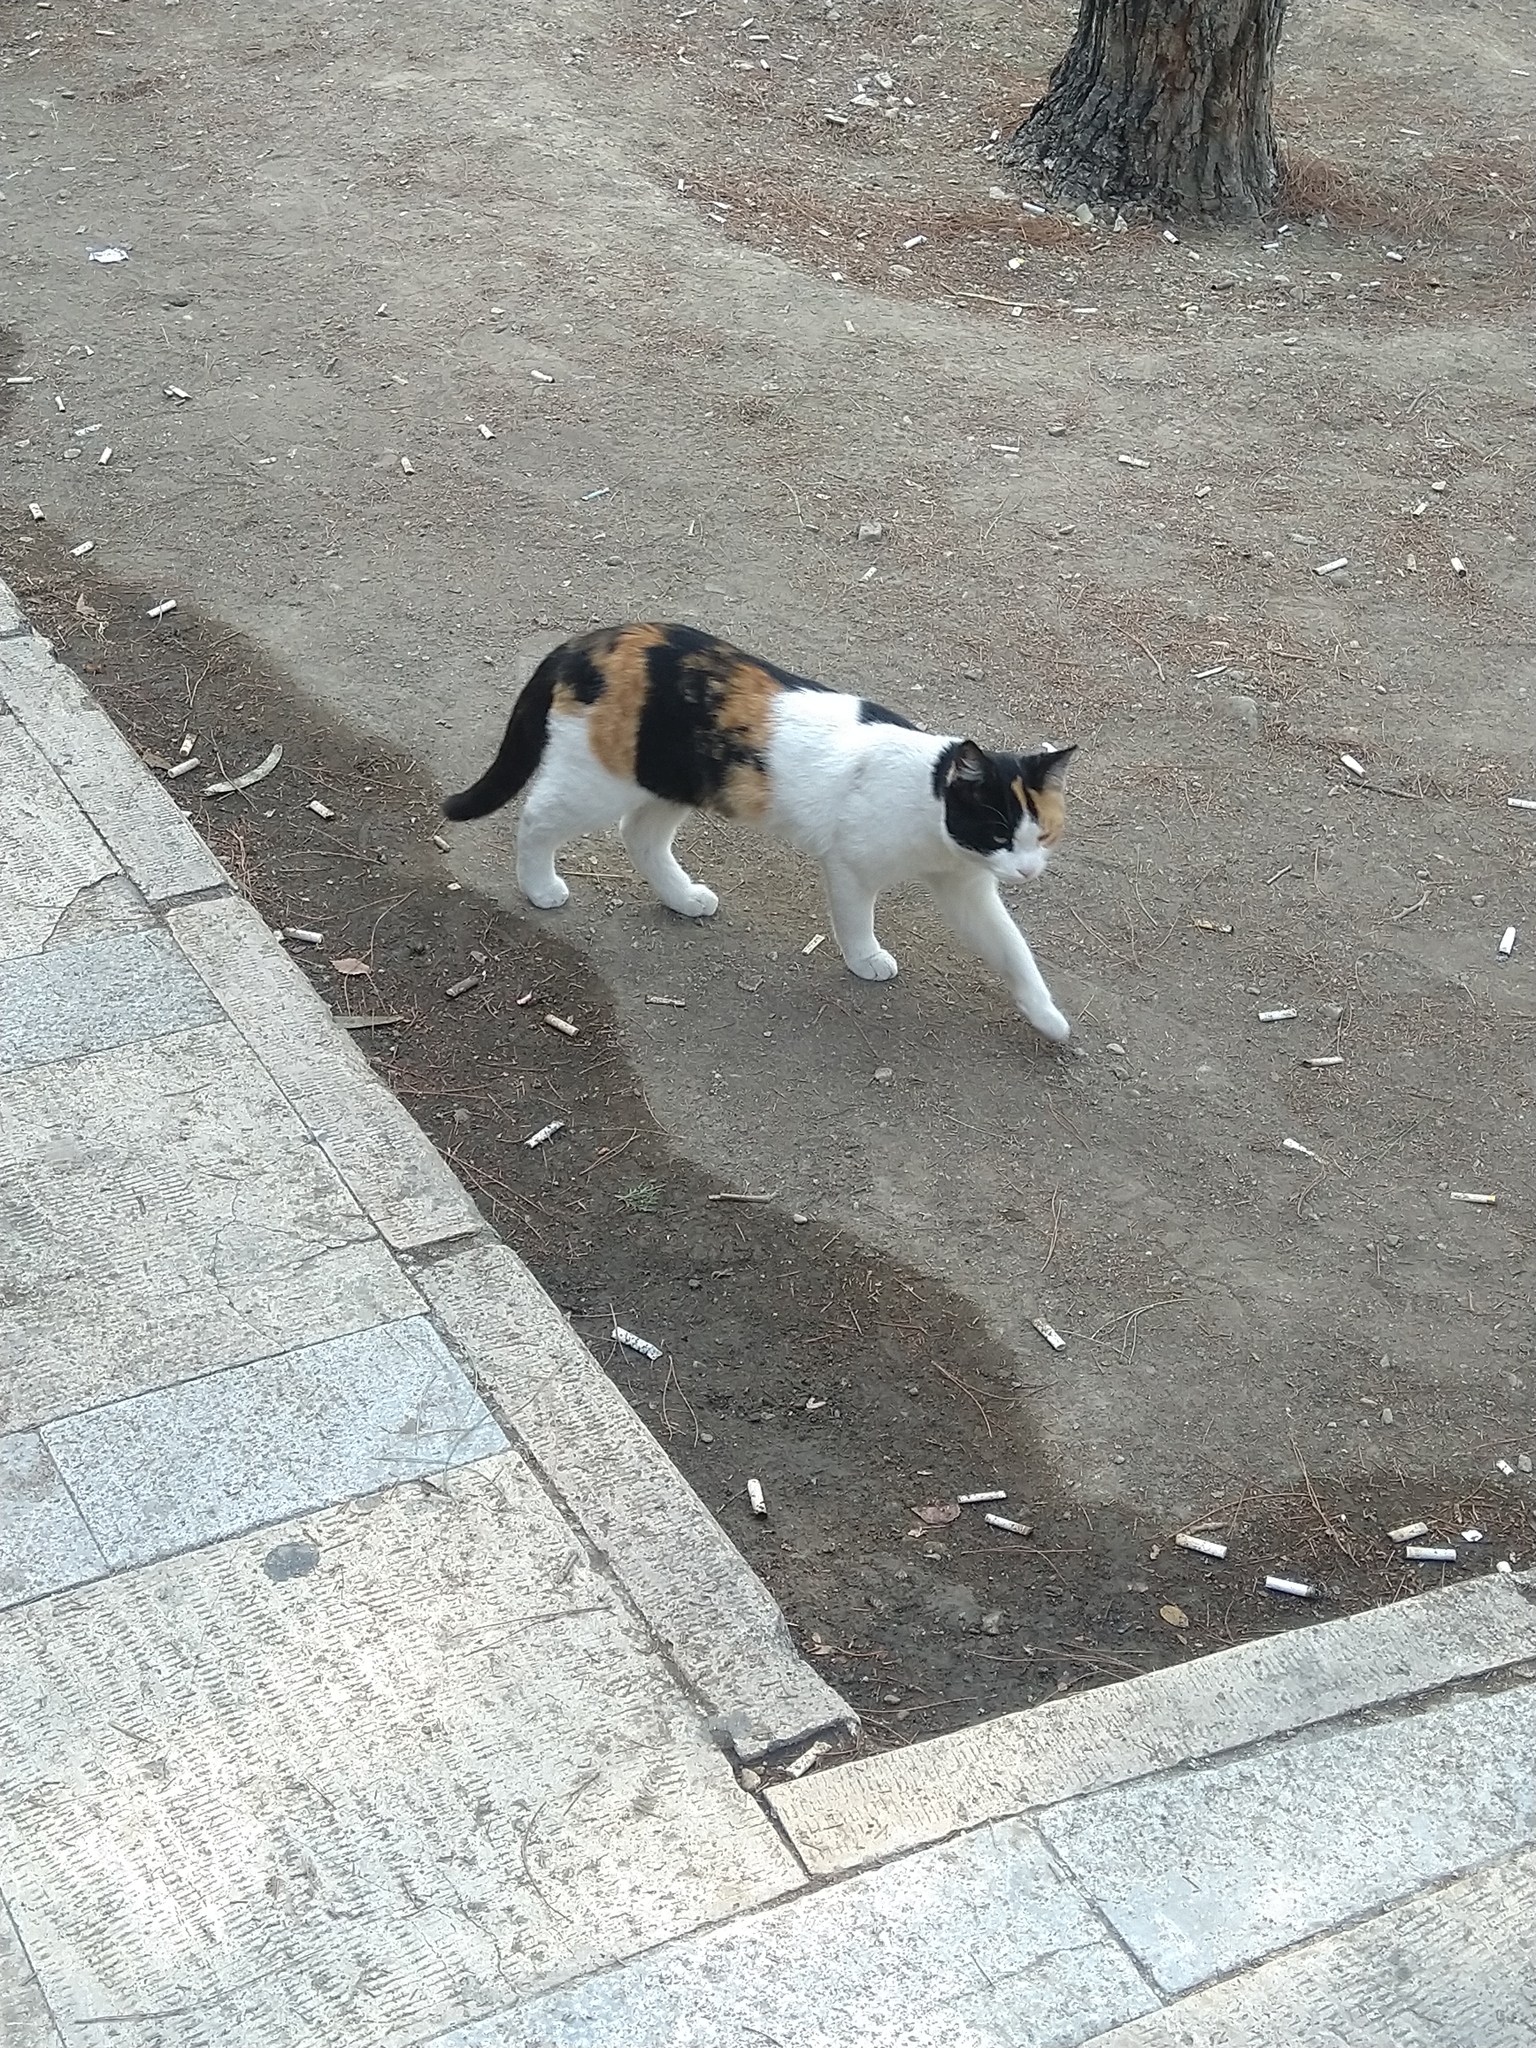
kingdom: Animalia
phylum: Chordata
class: Mammalia
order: Carnivora
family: Felidae
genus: Felis
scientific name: Felis catus
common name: Domestic cat
